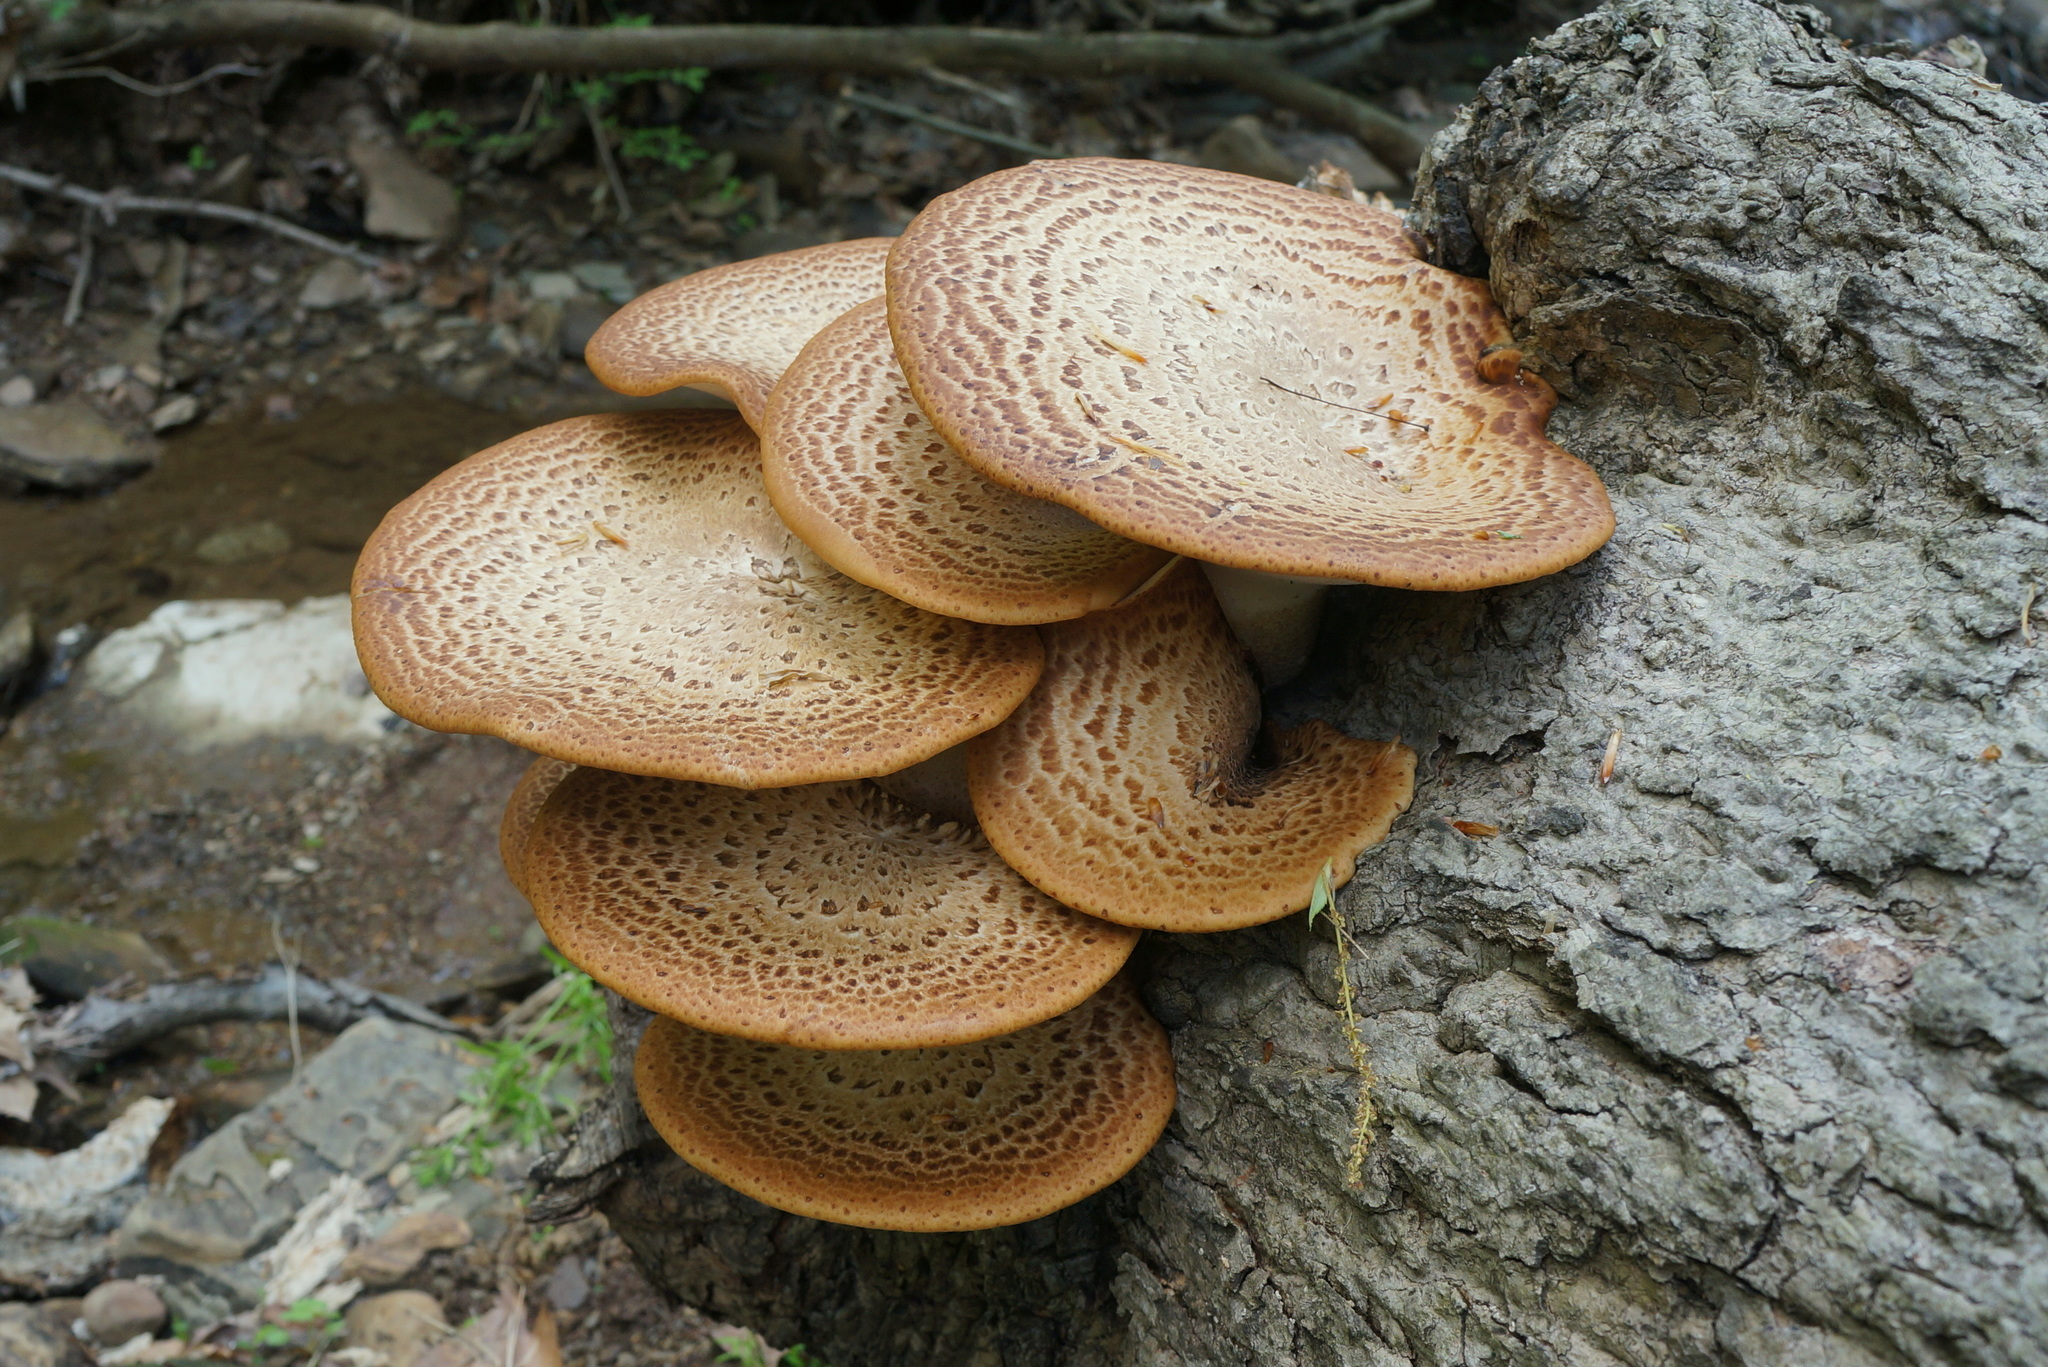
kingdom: Fungi
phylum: Basidiomycota
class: Agaricomycetes
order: Polyporales
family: Polyporaceae
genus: Cerioporus
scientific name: Cerioporus squamosus
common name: Dryad's saddle
